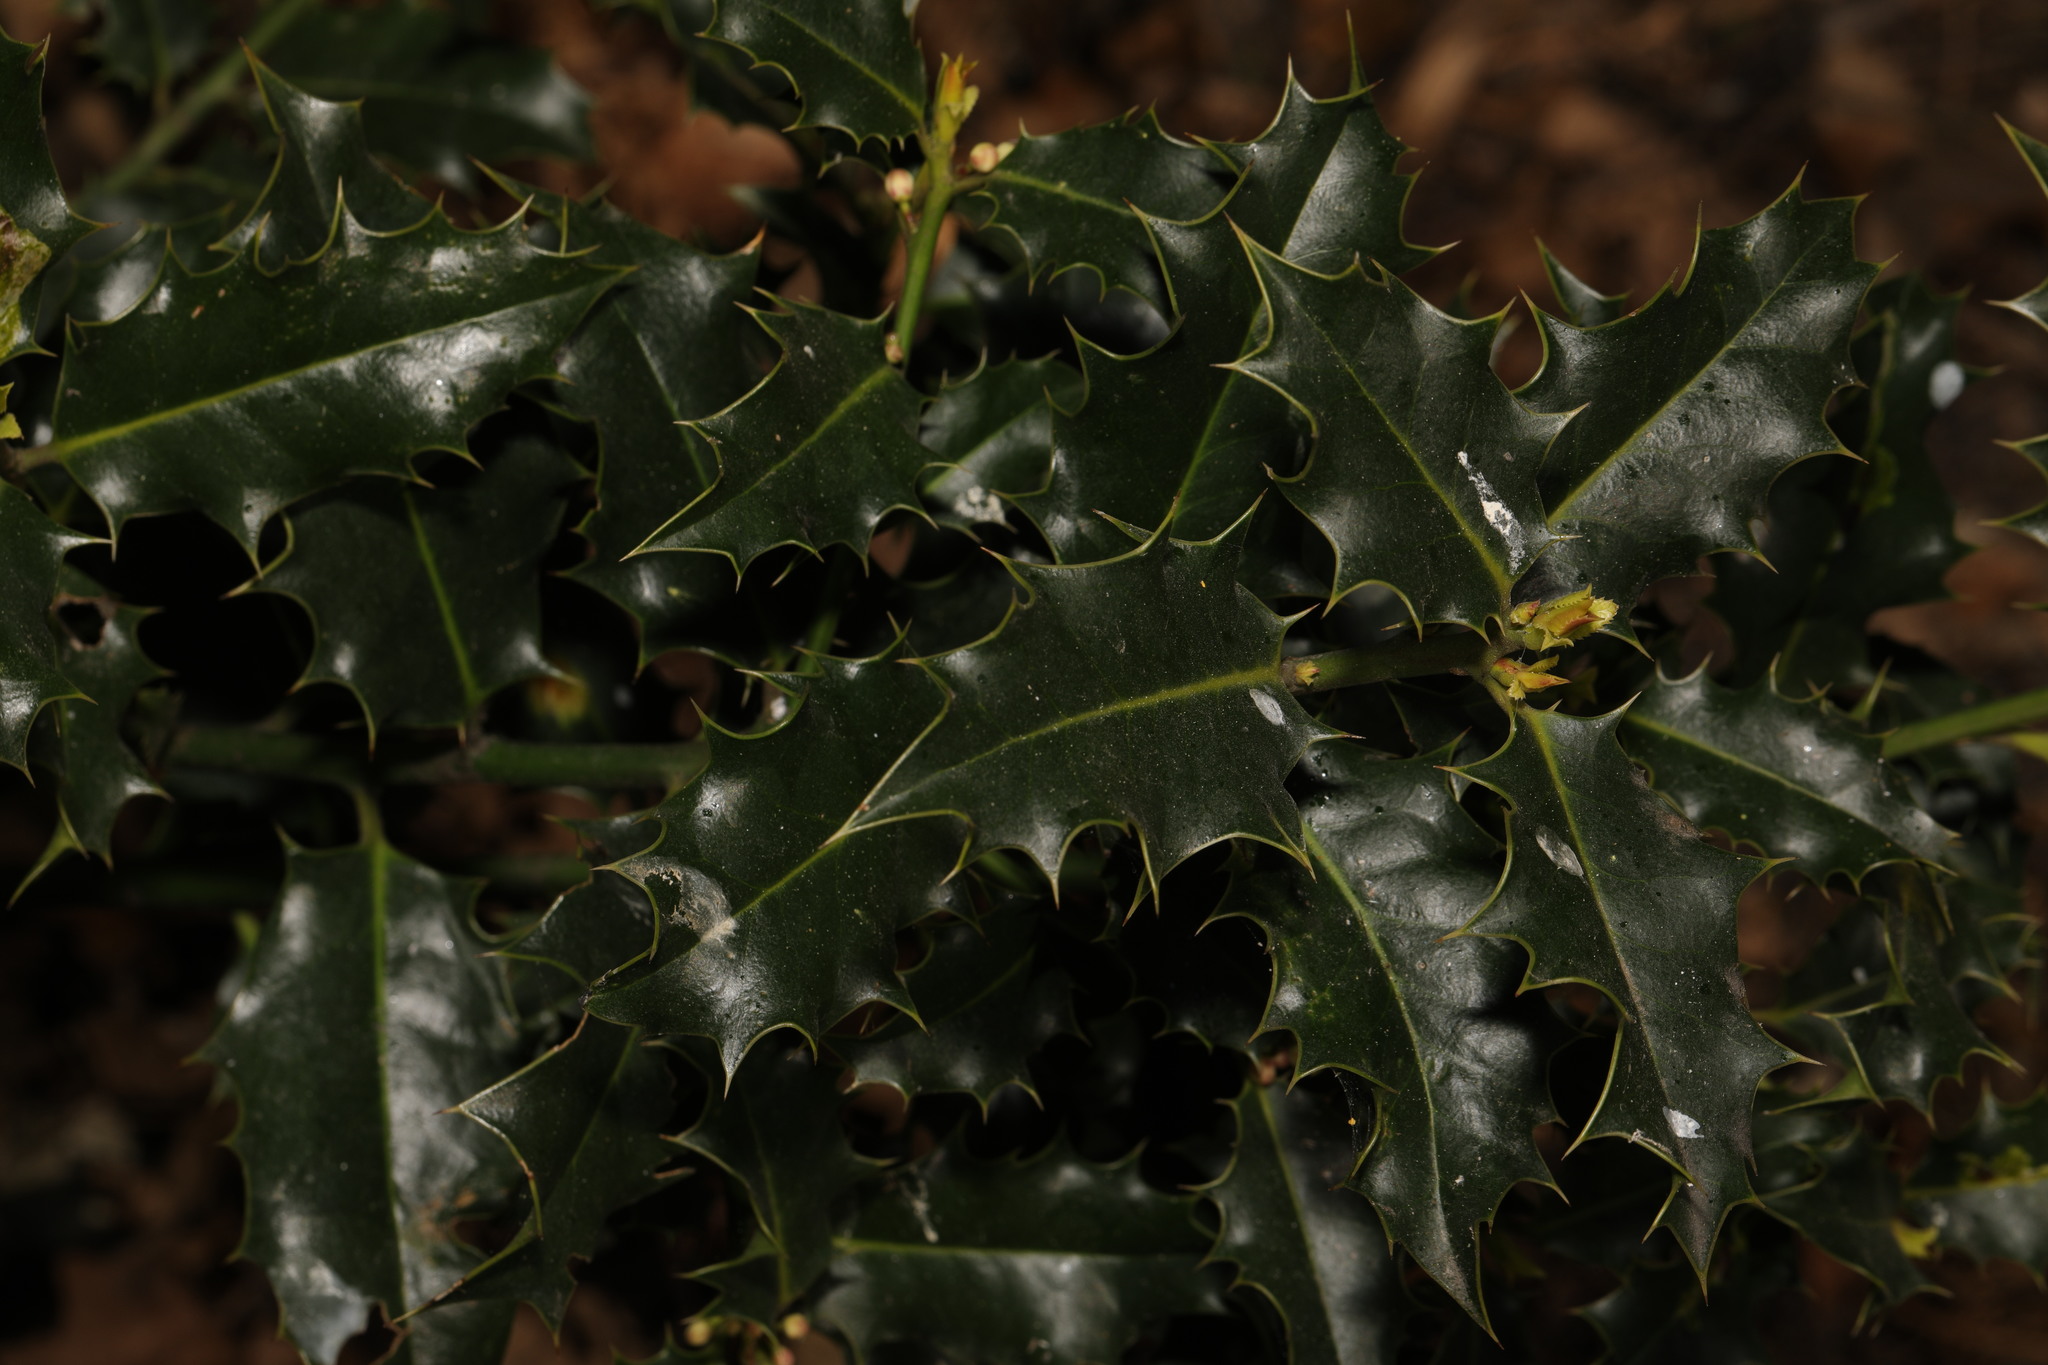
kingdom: Plantae
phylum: Tracheophyta
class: Magnoliopsida
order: Aquifoliales
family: Aquifoliaceae
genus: Ilex
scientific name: Ilex aquifolium
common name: English holly
